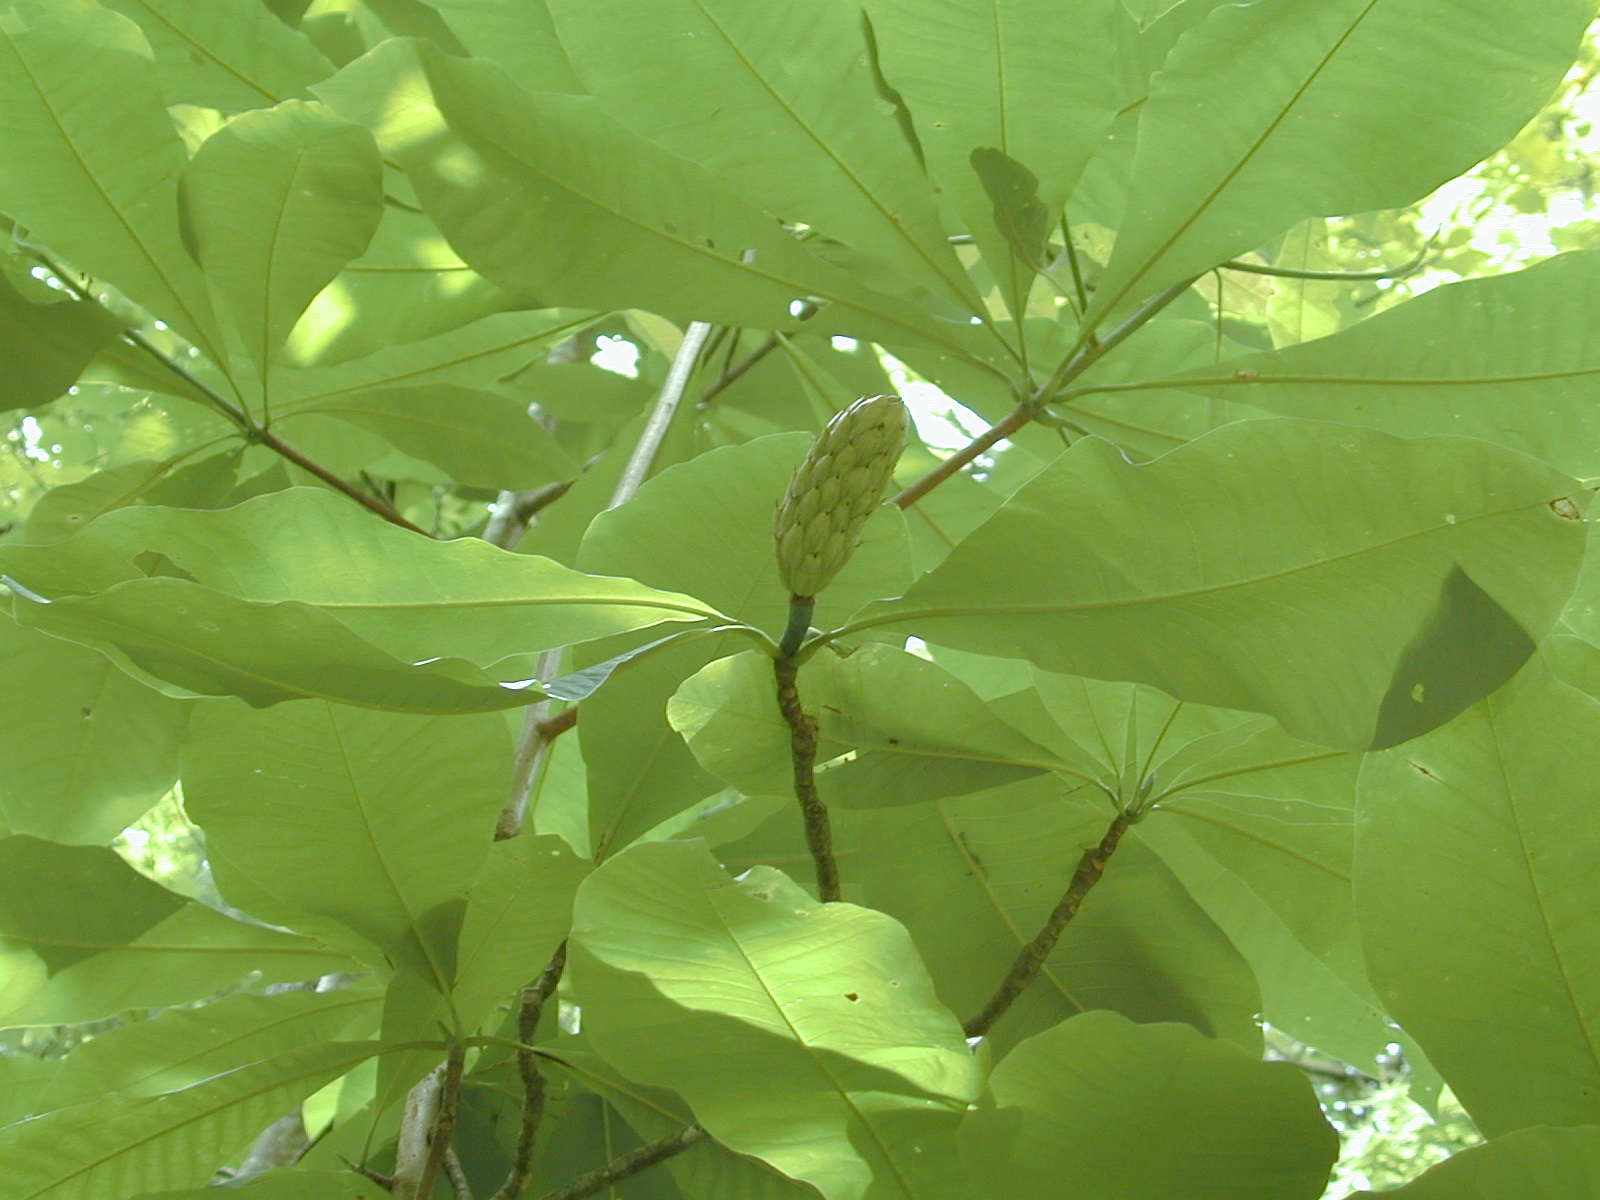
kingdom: Plantae
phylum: Tracheophyta
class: Magnoliopsida
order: Magnoliales
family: Magnoliaceae
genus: Magnolia
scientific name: Magnolia tripetala
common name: Umbrella magnolia
